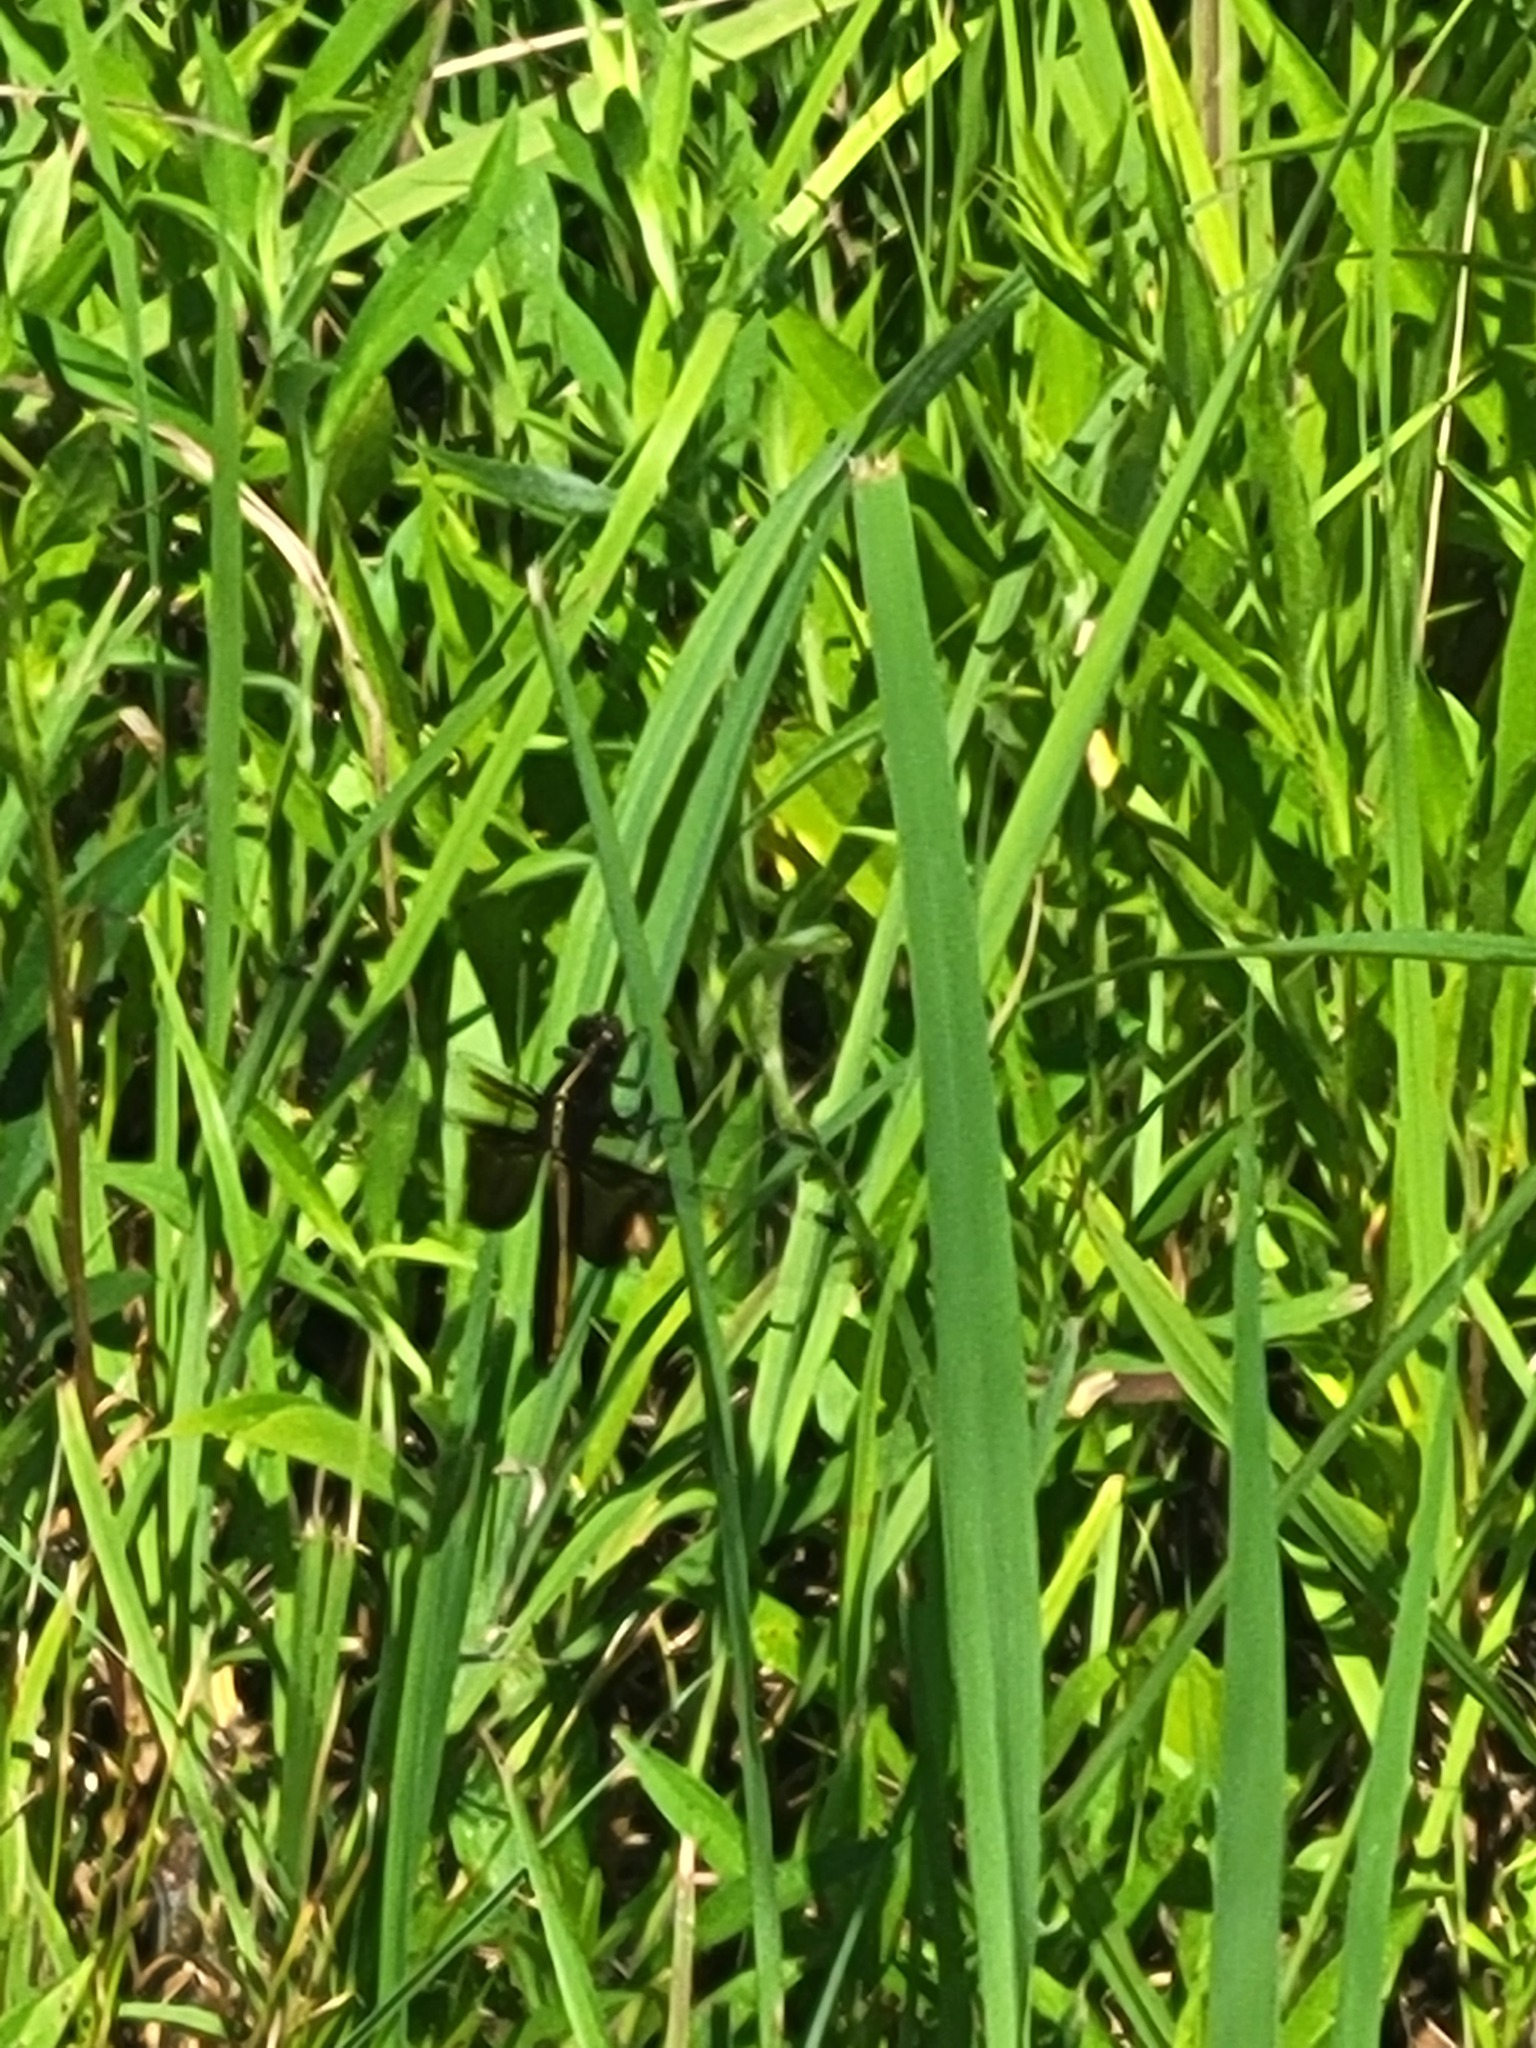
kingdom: Animalia
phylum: Arthropoda
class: Insecta
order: Odonata
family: Libellulidae
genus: Libellula
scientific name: Libellula luctuosa
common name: Widow skimmer
